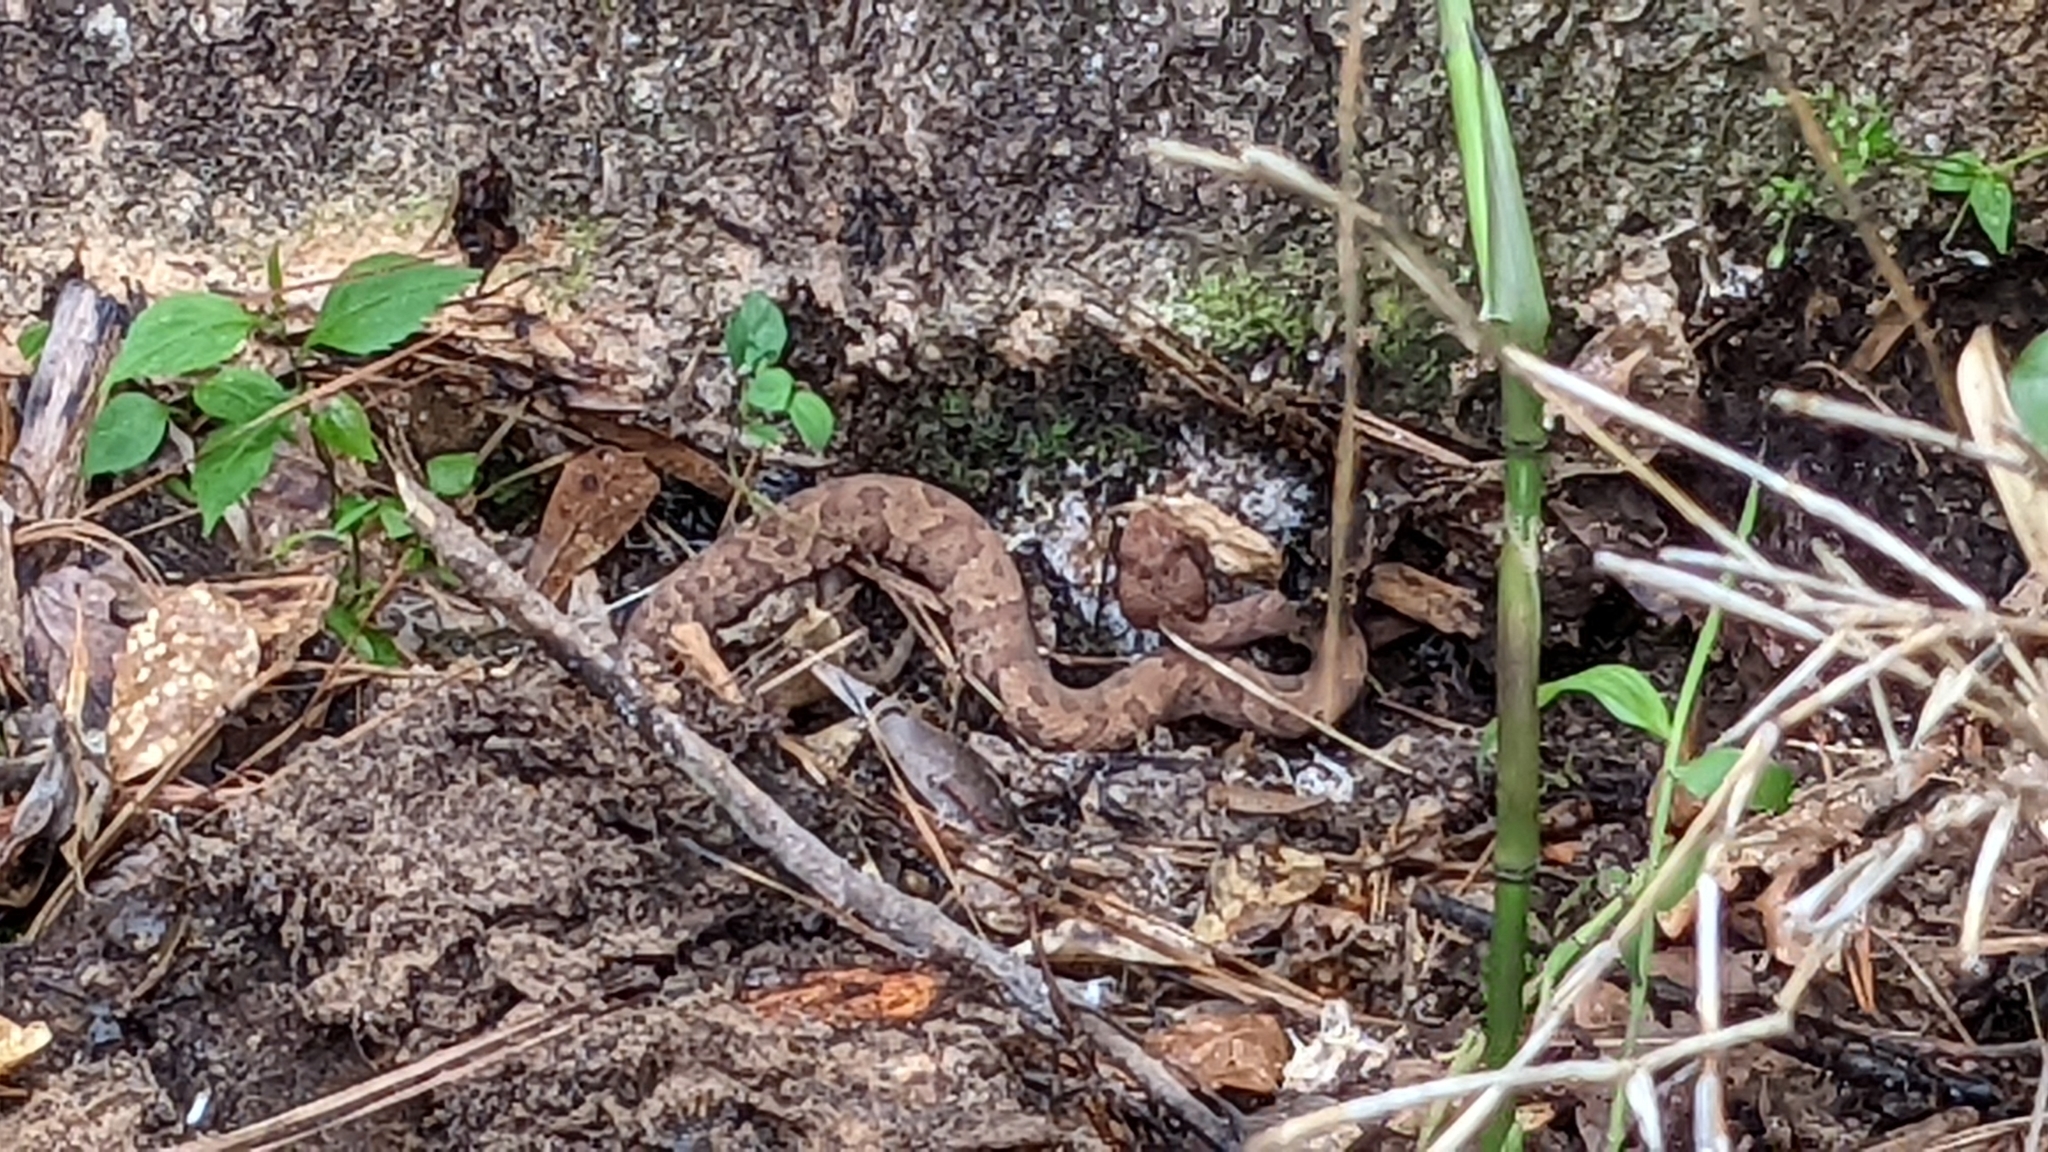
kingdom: Animalia
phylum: Chordata
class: Squamata
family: Viperidae
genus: Agkistrodon
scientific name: Agkistrodon piscivorus
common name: Cottonmouth
